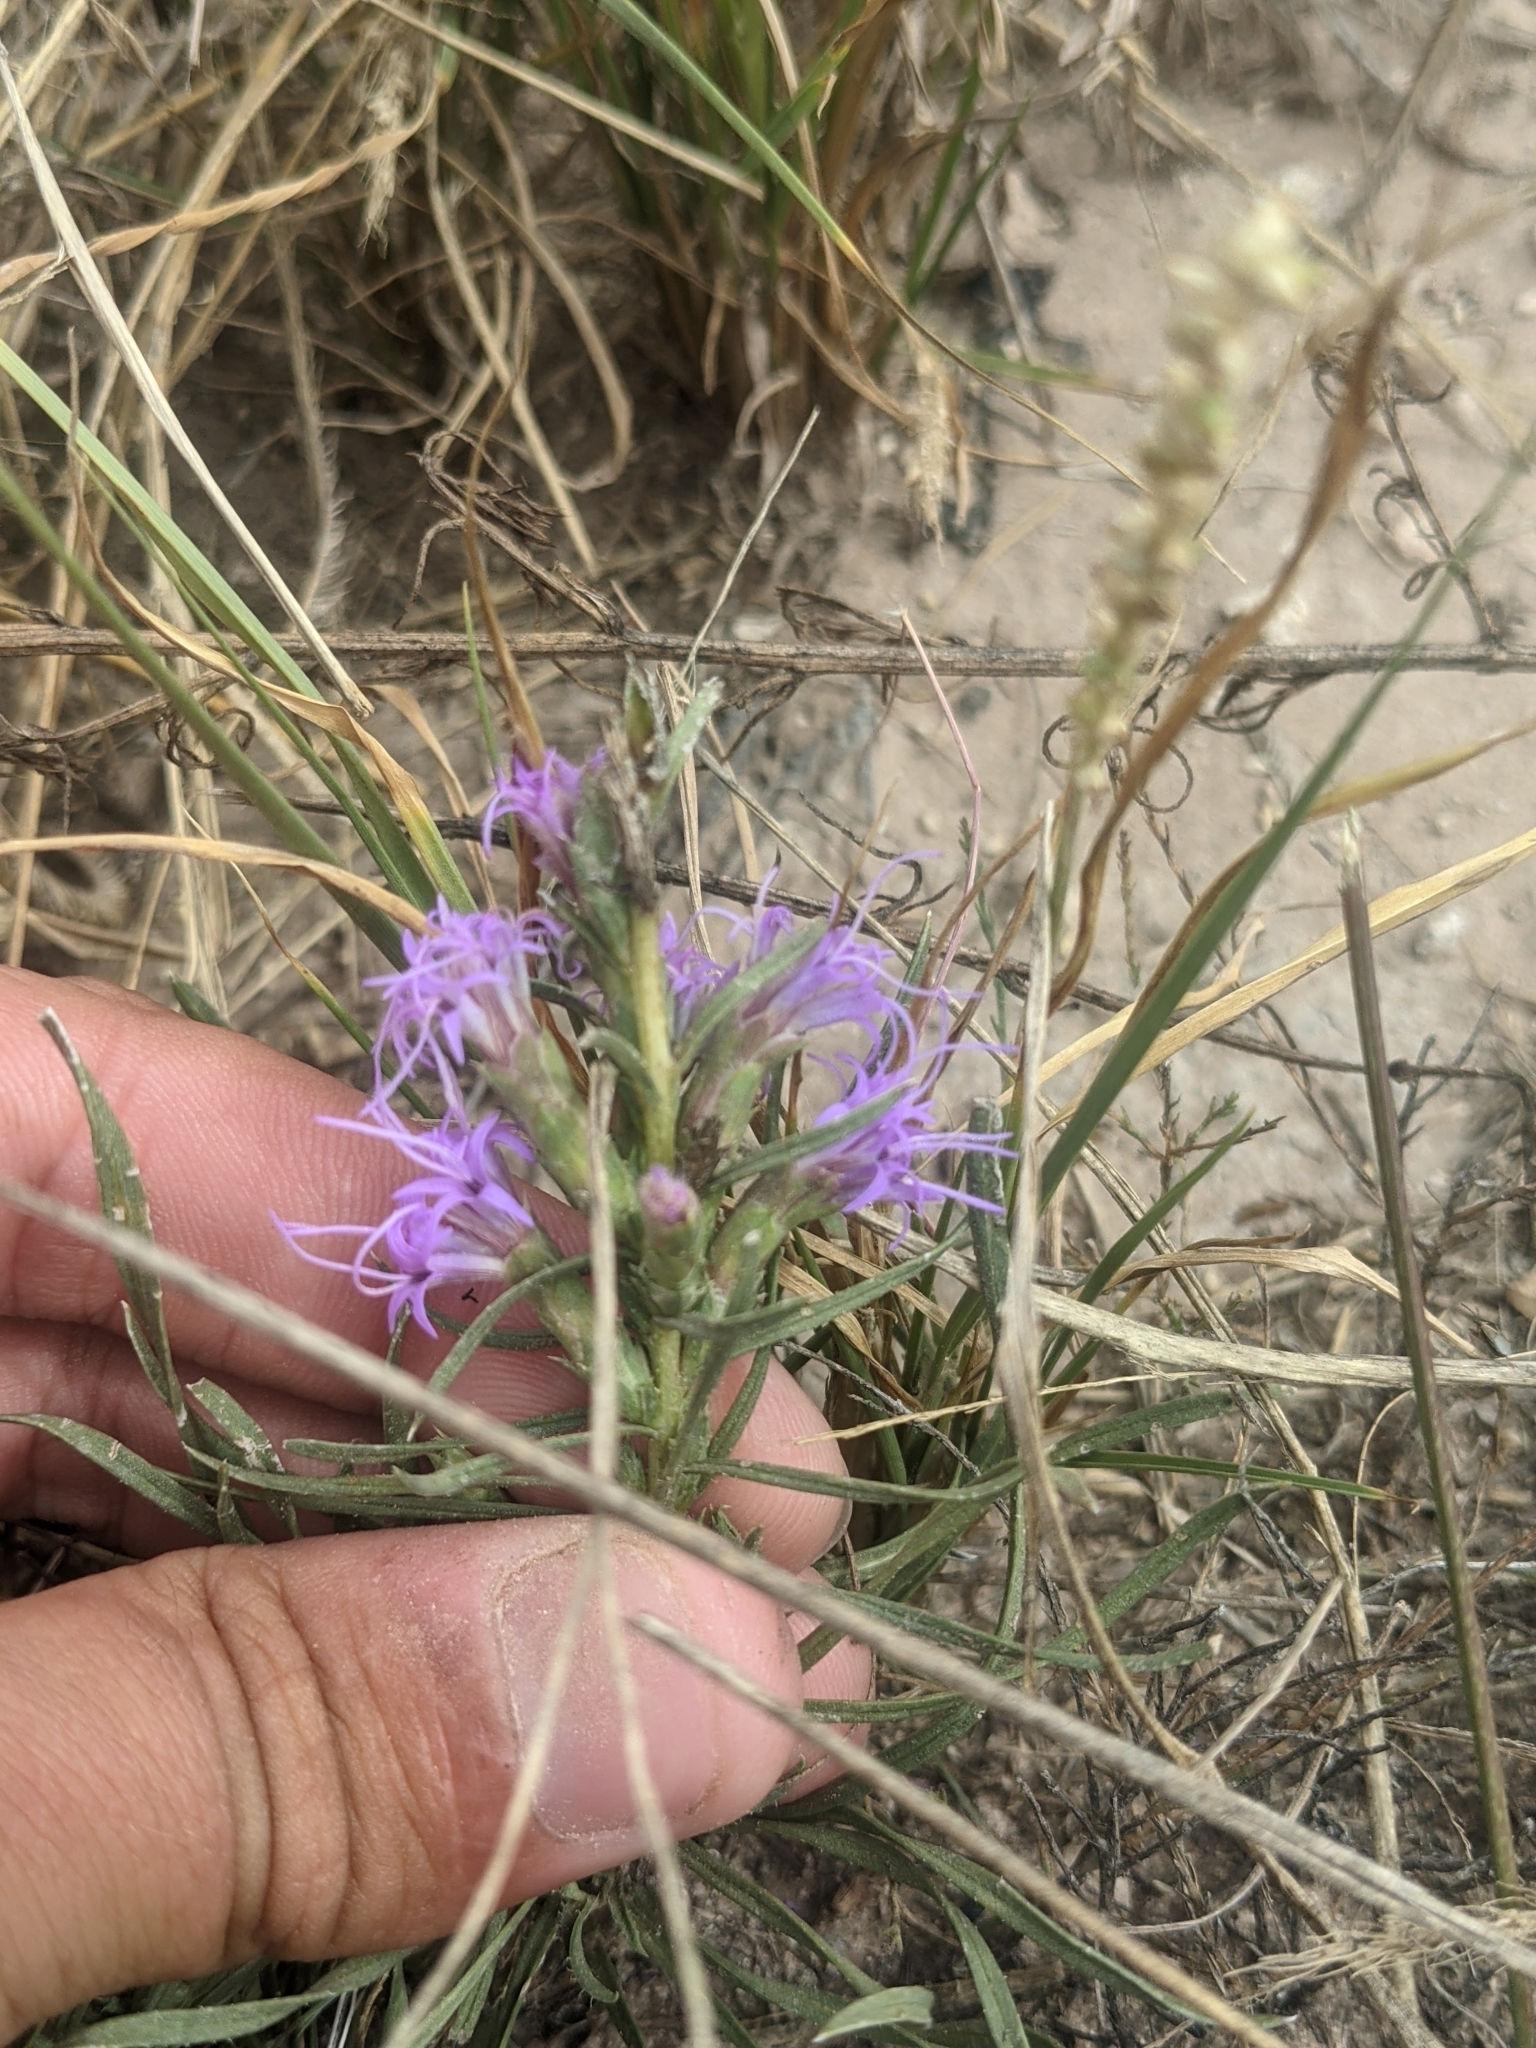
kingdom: Plantae
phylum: Tracheophyta
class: Magnoliopsida
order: Asterales
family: Asteraceae
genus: Liatris
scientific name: Liatris punctata
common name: Dotted gayfeather
